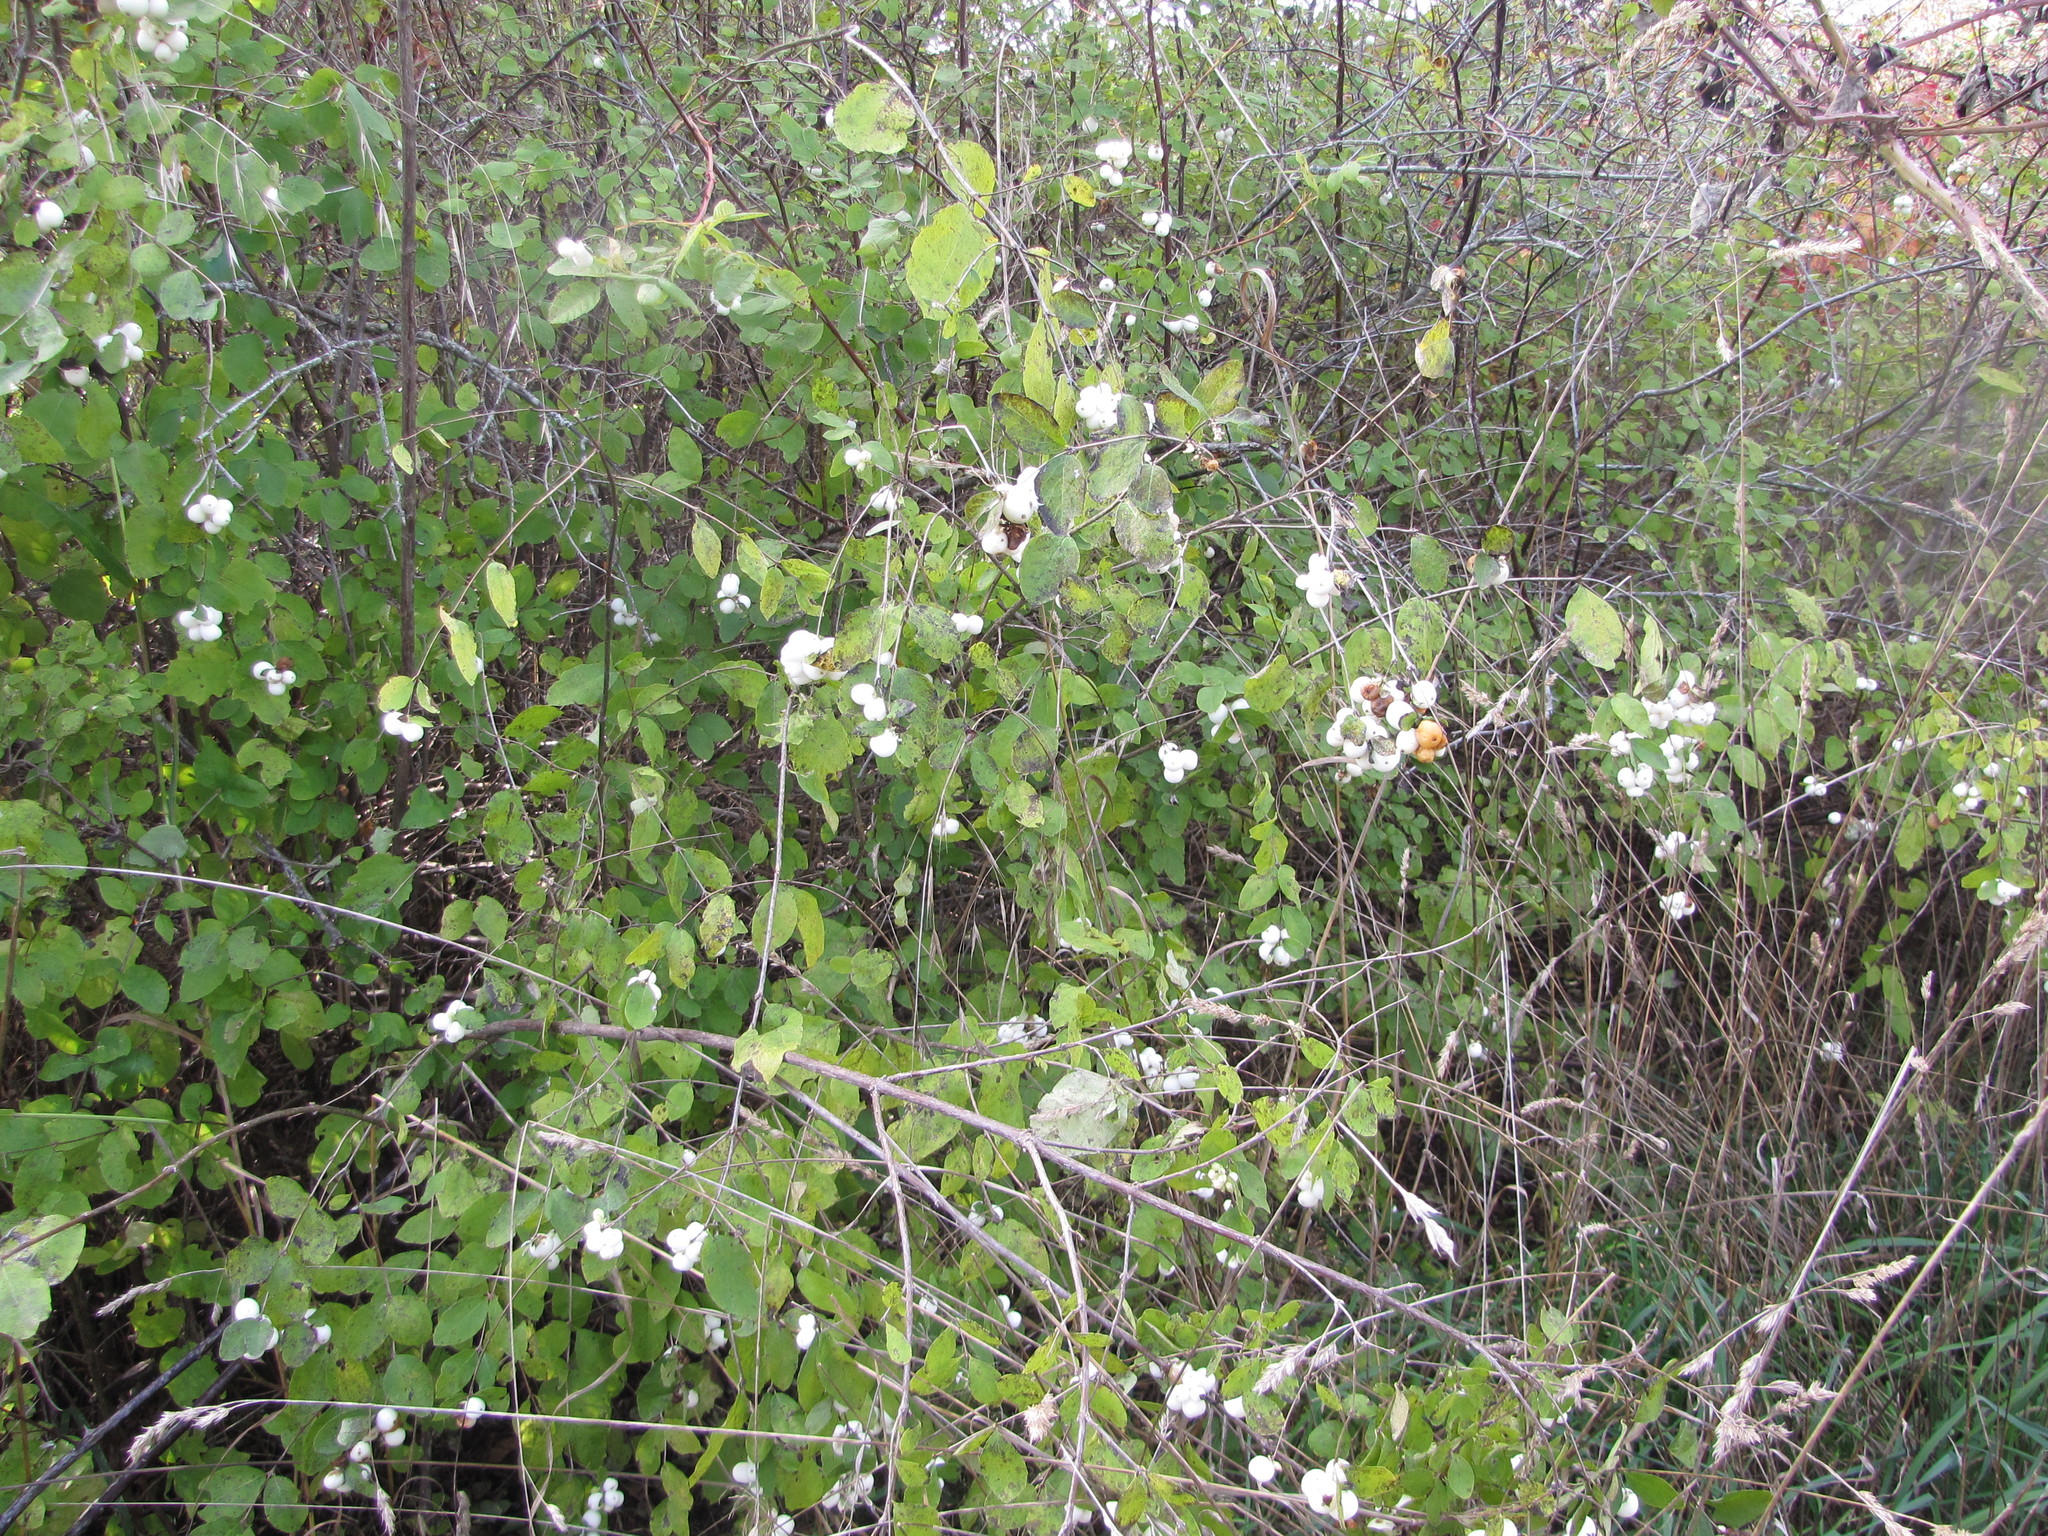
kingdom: Plantae
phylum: Tracheophyta
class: Magnoliopsida
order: Dipsacales
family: Caprifoliaceae
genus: Symphoricarpos
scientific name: Symphoricarpos albus
